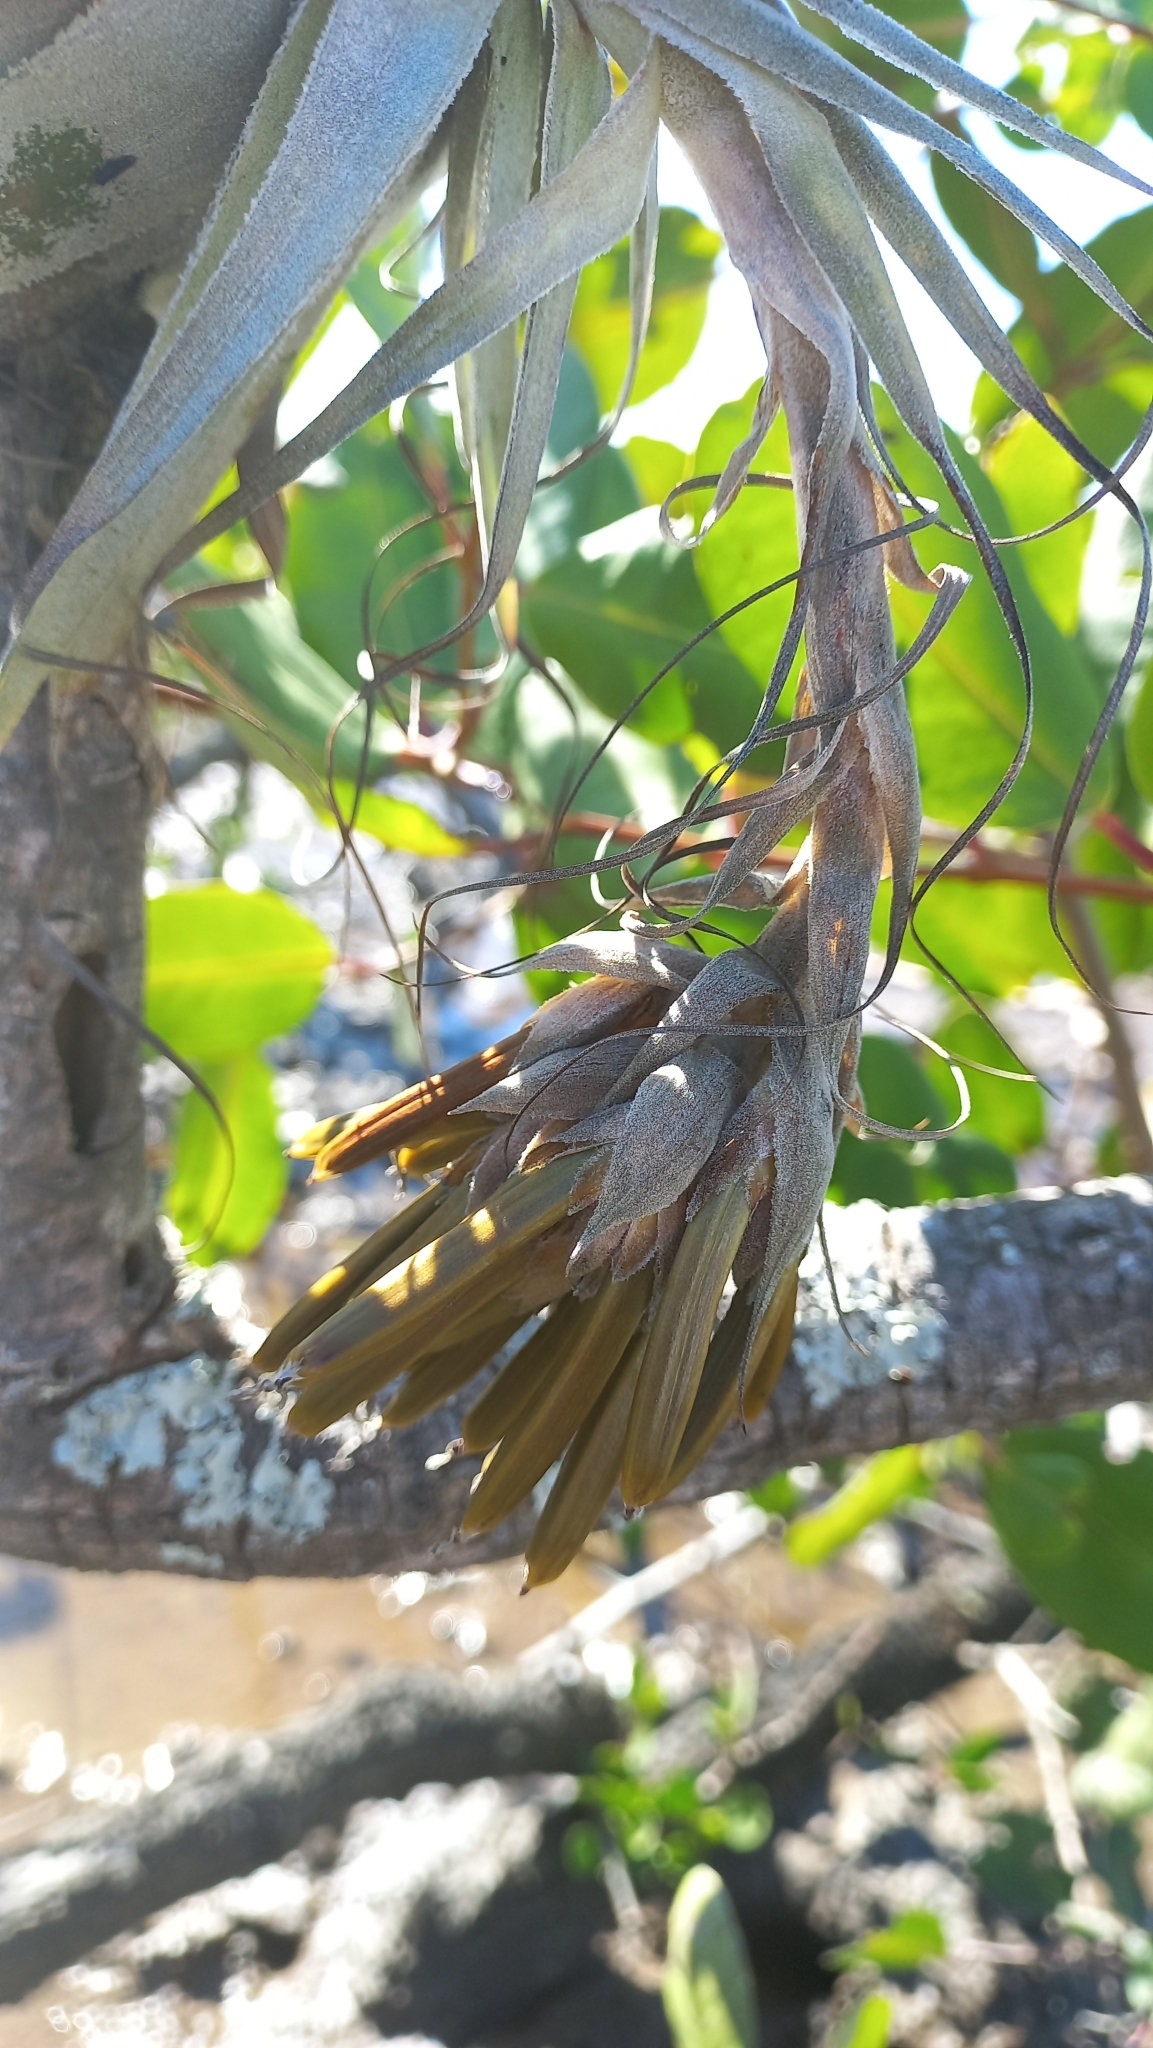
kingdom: Plantae
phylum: Tracheophyta
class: Liliopsida
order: Poales
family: Bromeliaceae
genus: Tillandsia
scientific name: Tillandsia gardneri
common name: Airplant
